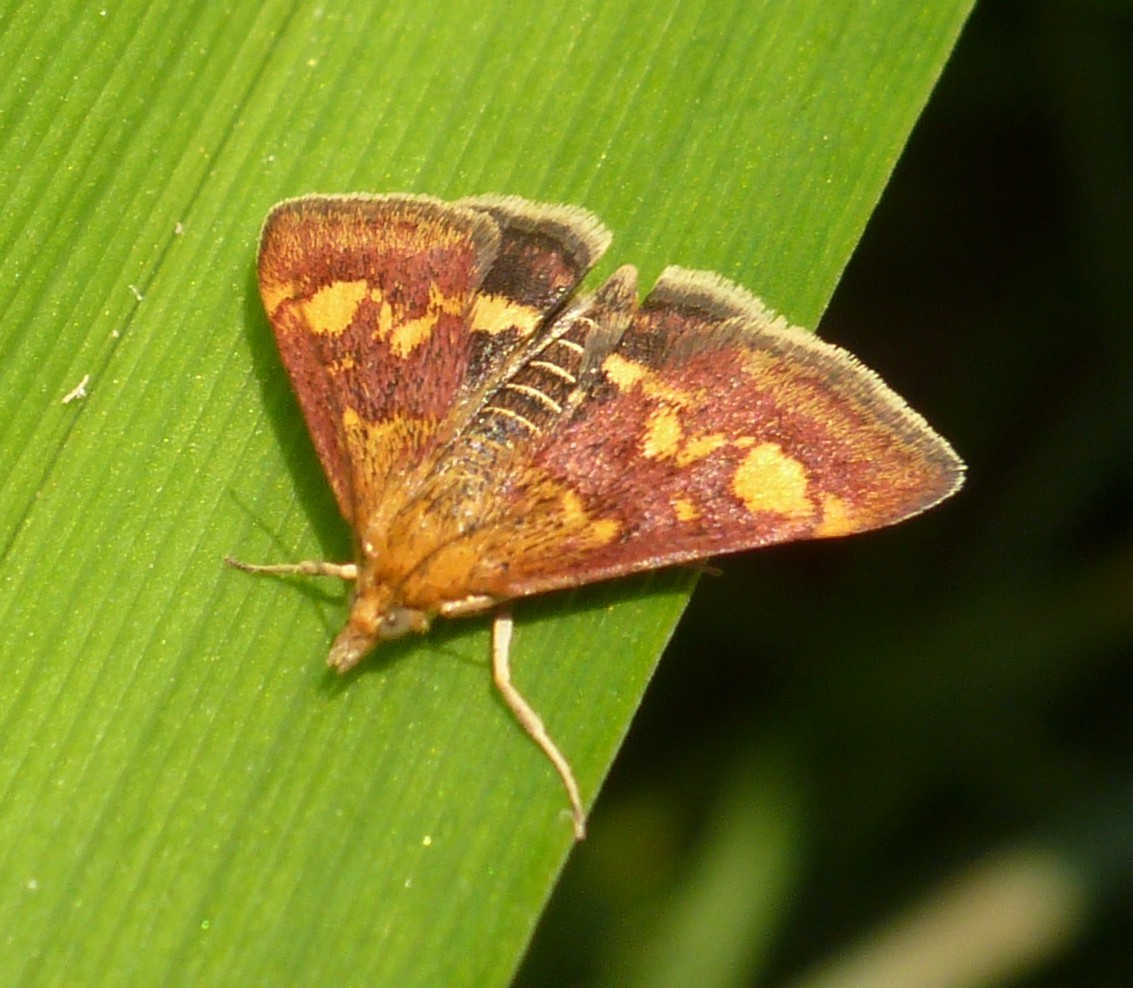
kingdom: Animalia
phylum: Arthropoda
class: Insecta
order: Lepidoptera
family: Crambidae
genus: Pyrausta
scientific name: Pyrausta aurata
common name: Small purple & gold
